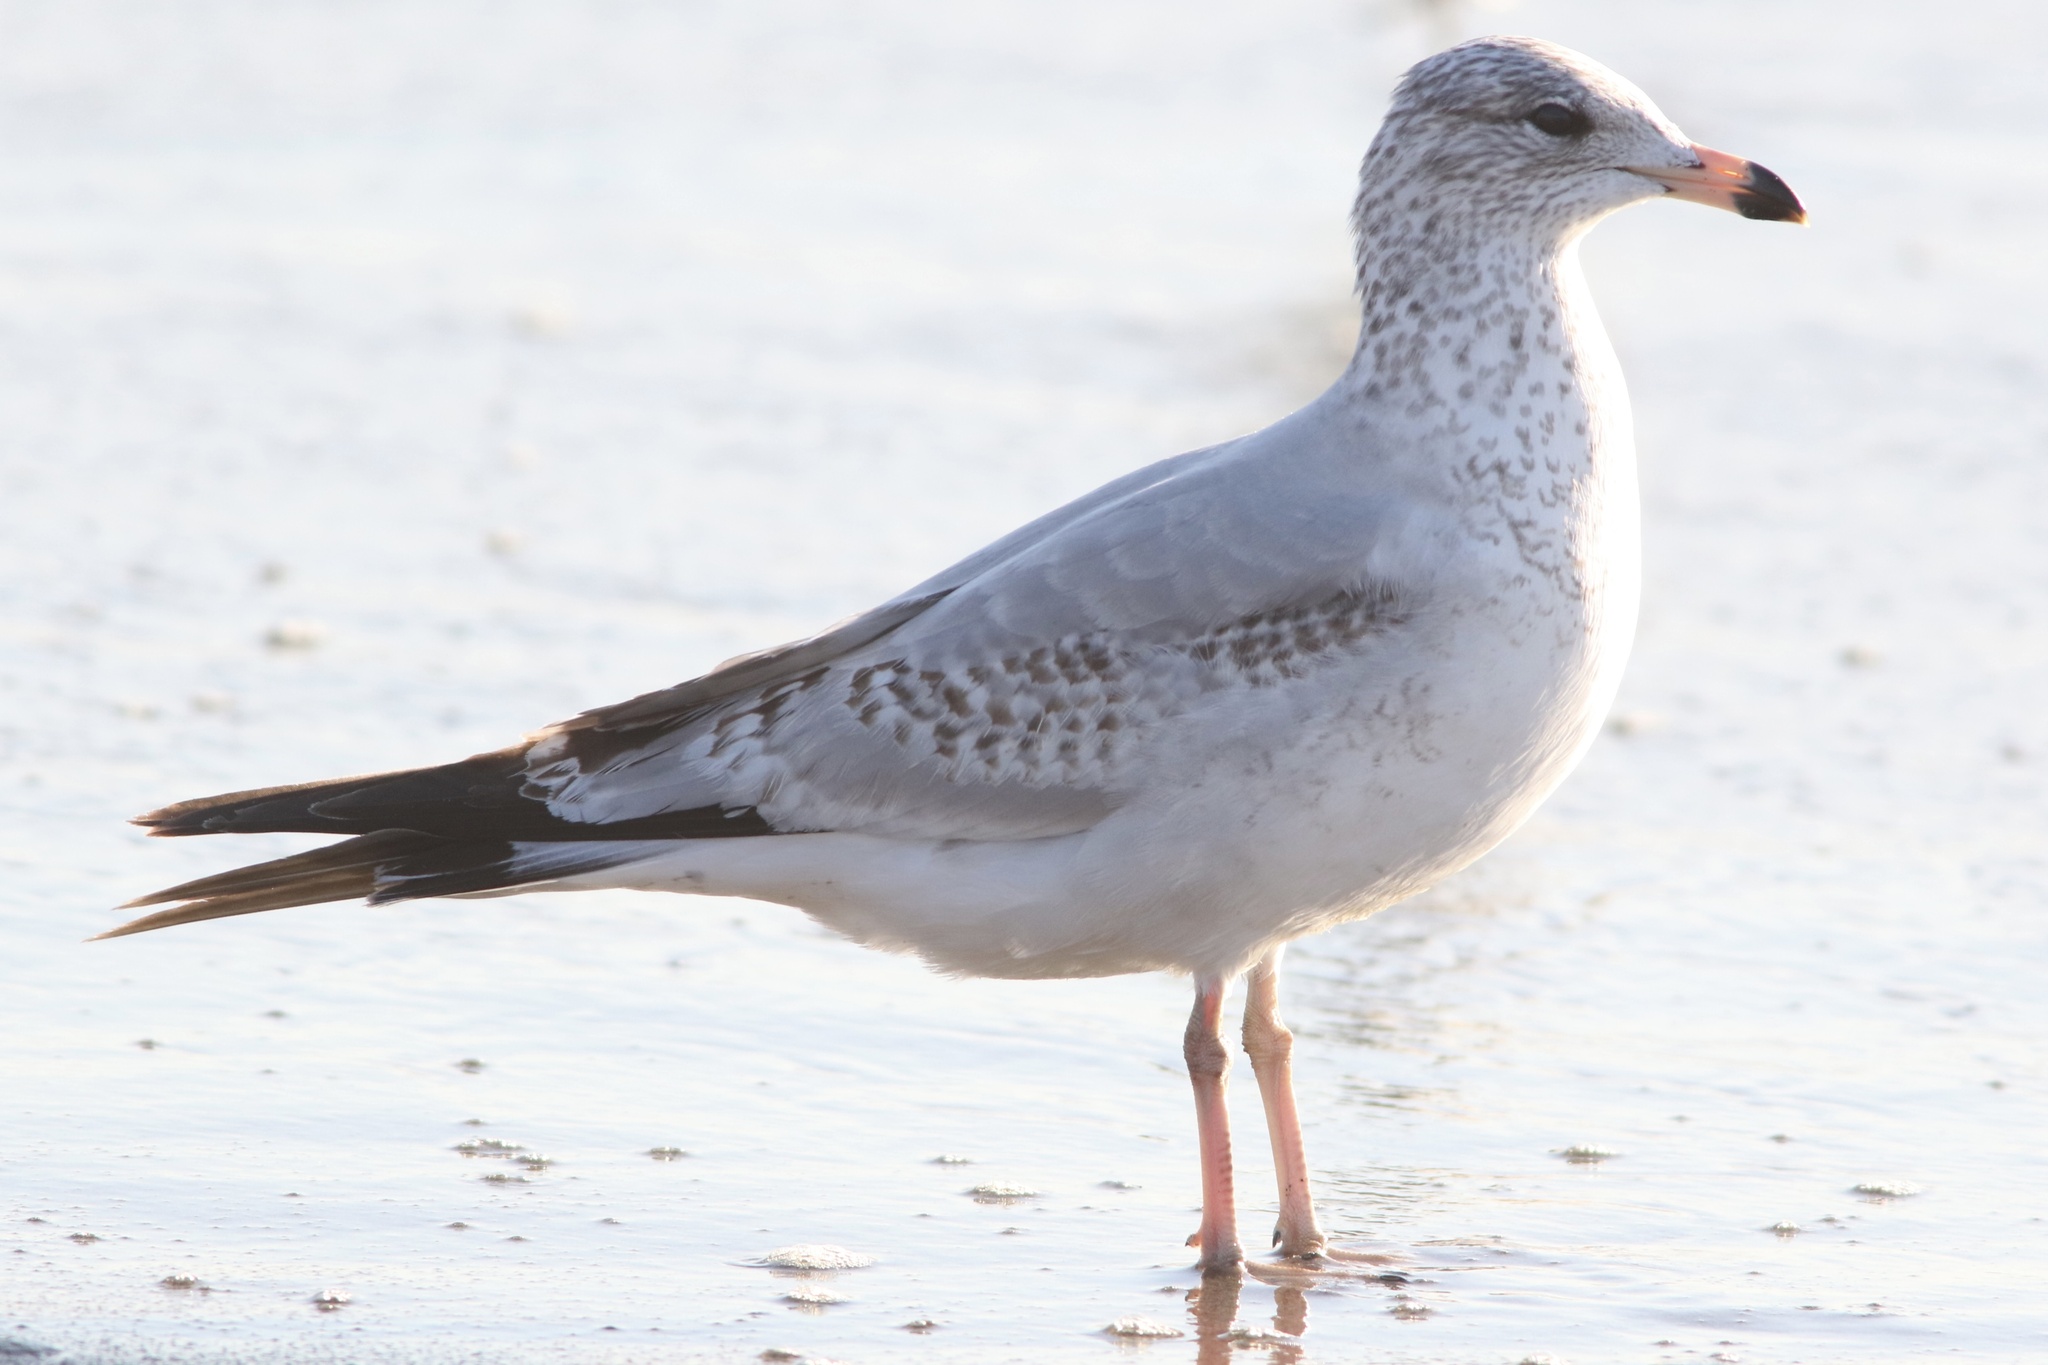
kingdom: Animalia
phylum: Chordata
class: Aves
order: Charadriiformes
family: Laridae
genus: Larus
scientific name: Larus delawarensis
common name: Ring-billed gull
